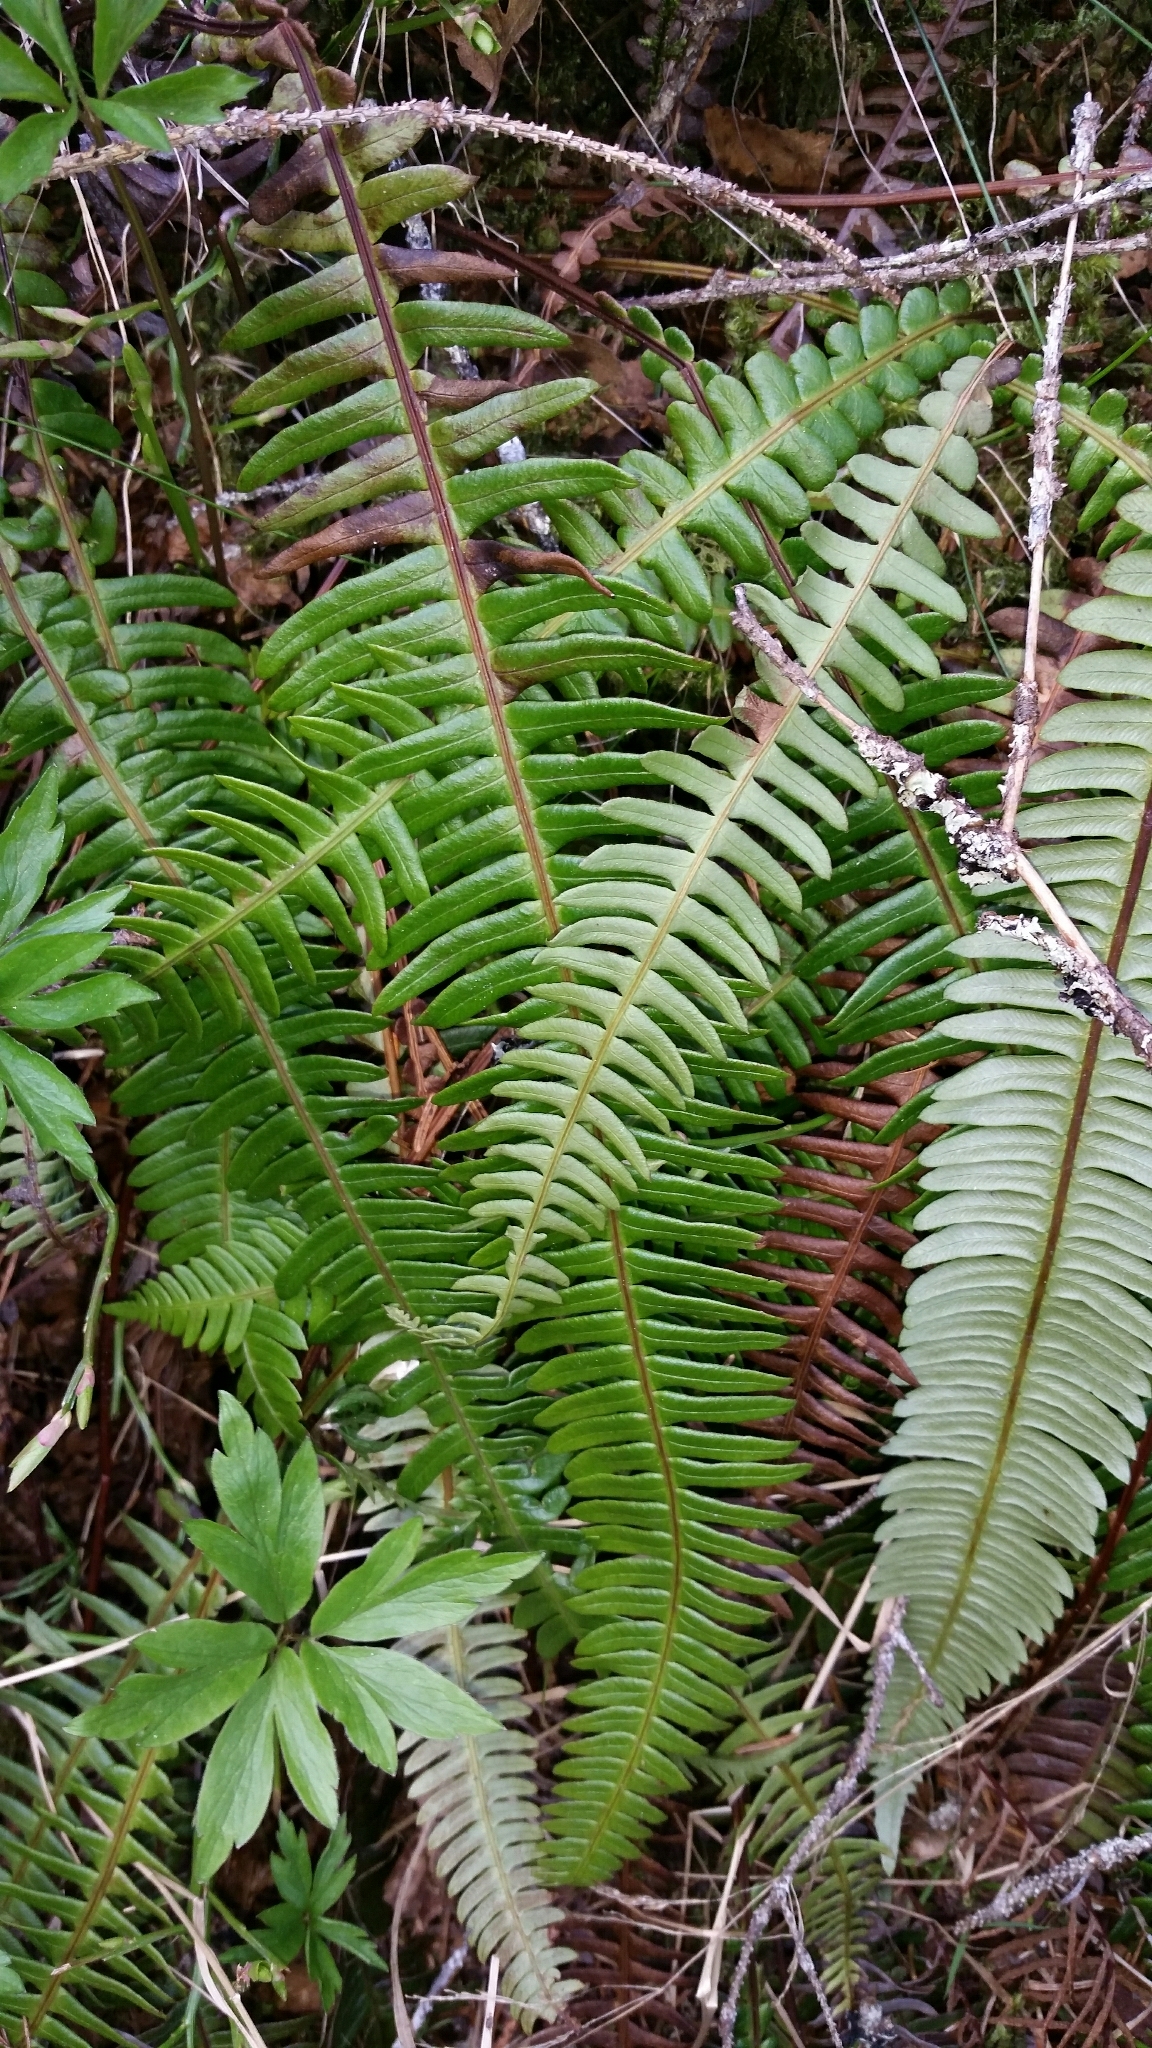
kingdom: Plantae
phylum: Tracheophyta
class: Polypodiopsida
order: Polypodiales
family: Blechnaceae
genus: Struthiopteris
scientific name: Struthiopteris spicant
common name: Deer fern
